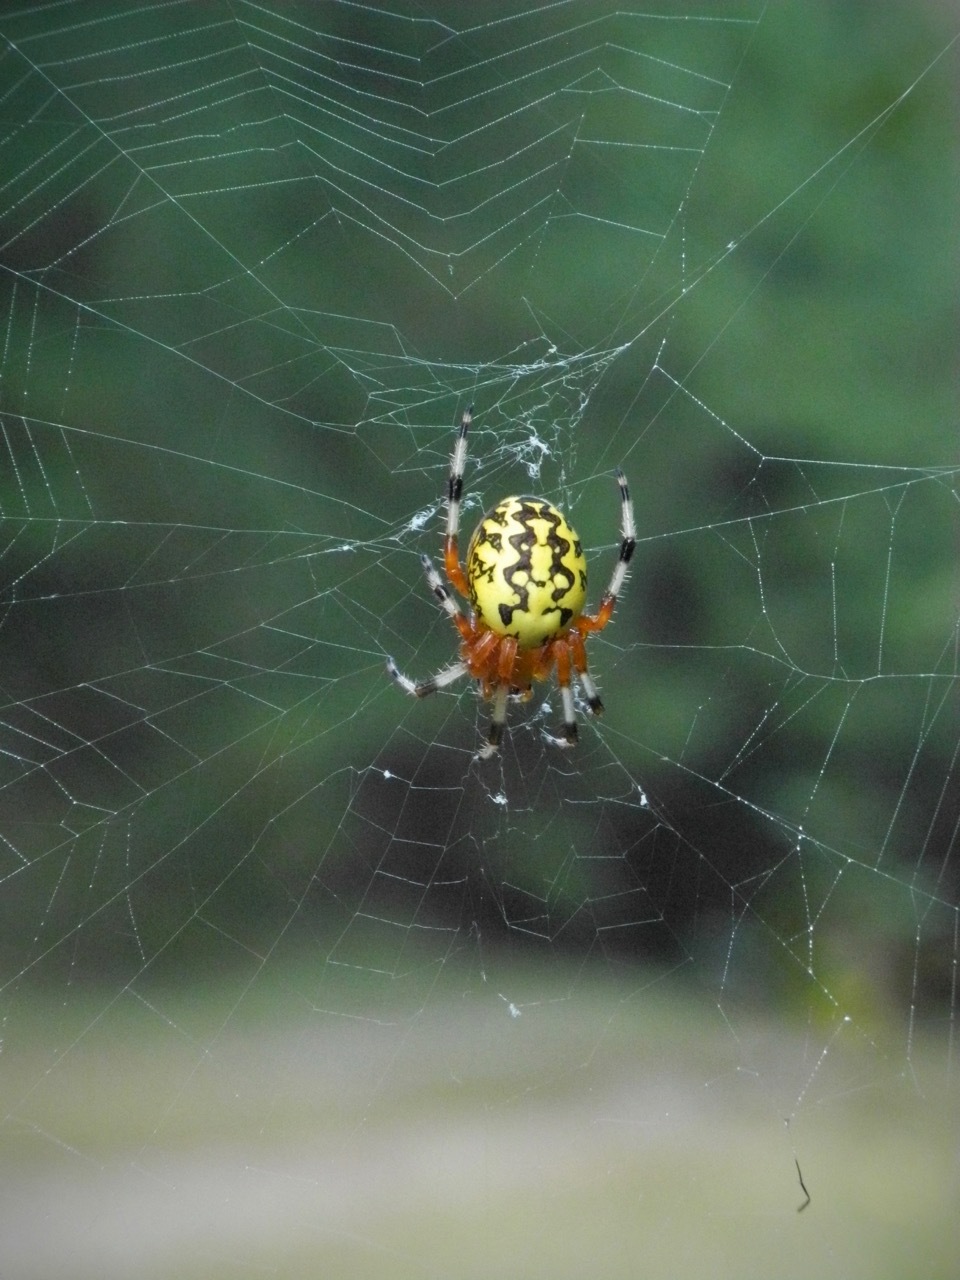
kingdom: Animalia
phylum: Arthropoda
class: Arachnida
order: Araneae
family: Araneidae
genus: Araneus
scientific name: Araneus marmoreus
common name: Marbled orbweaver
